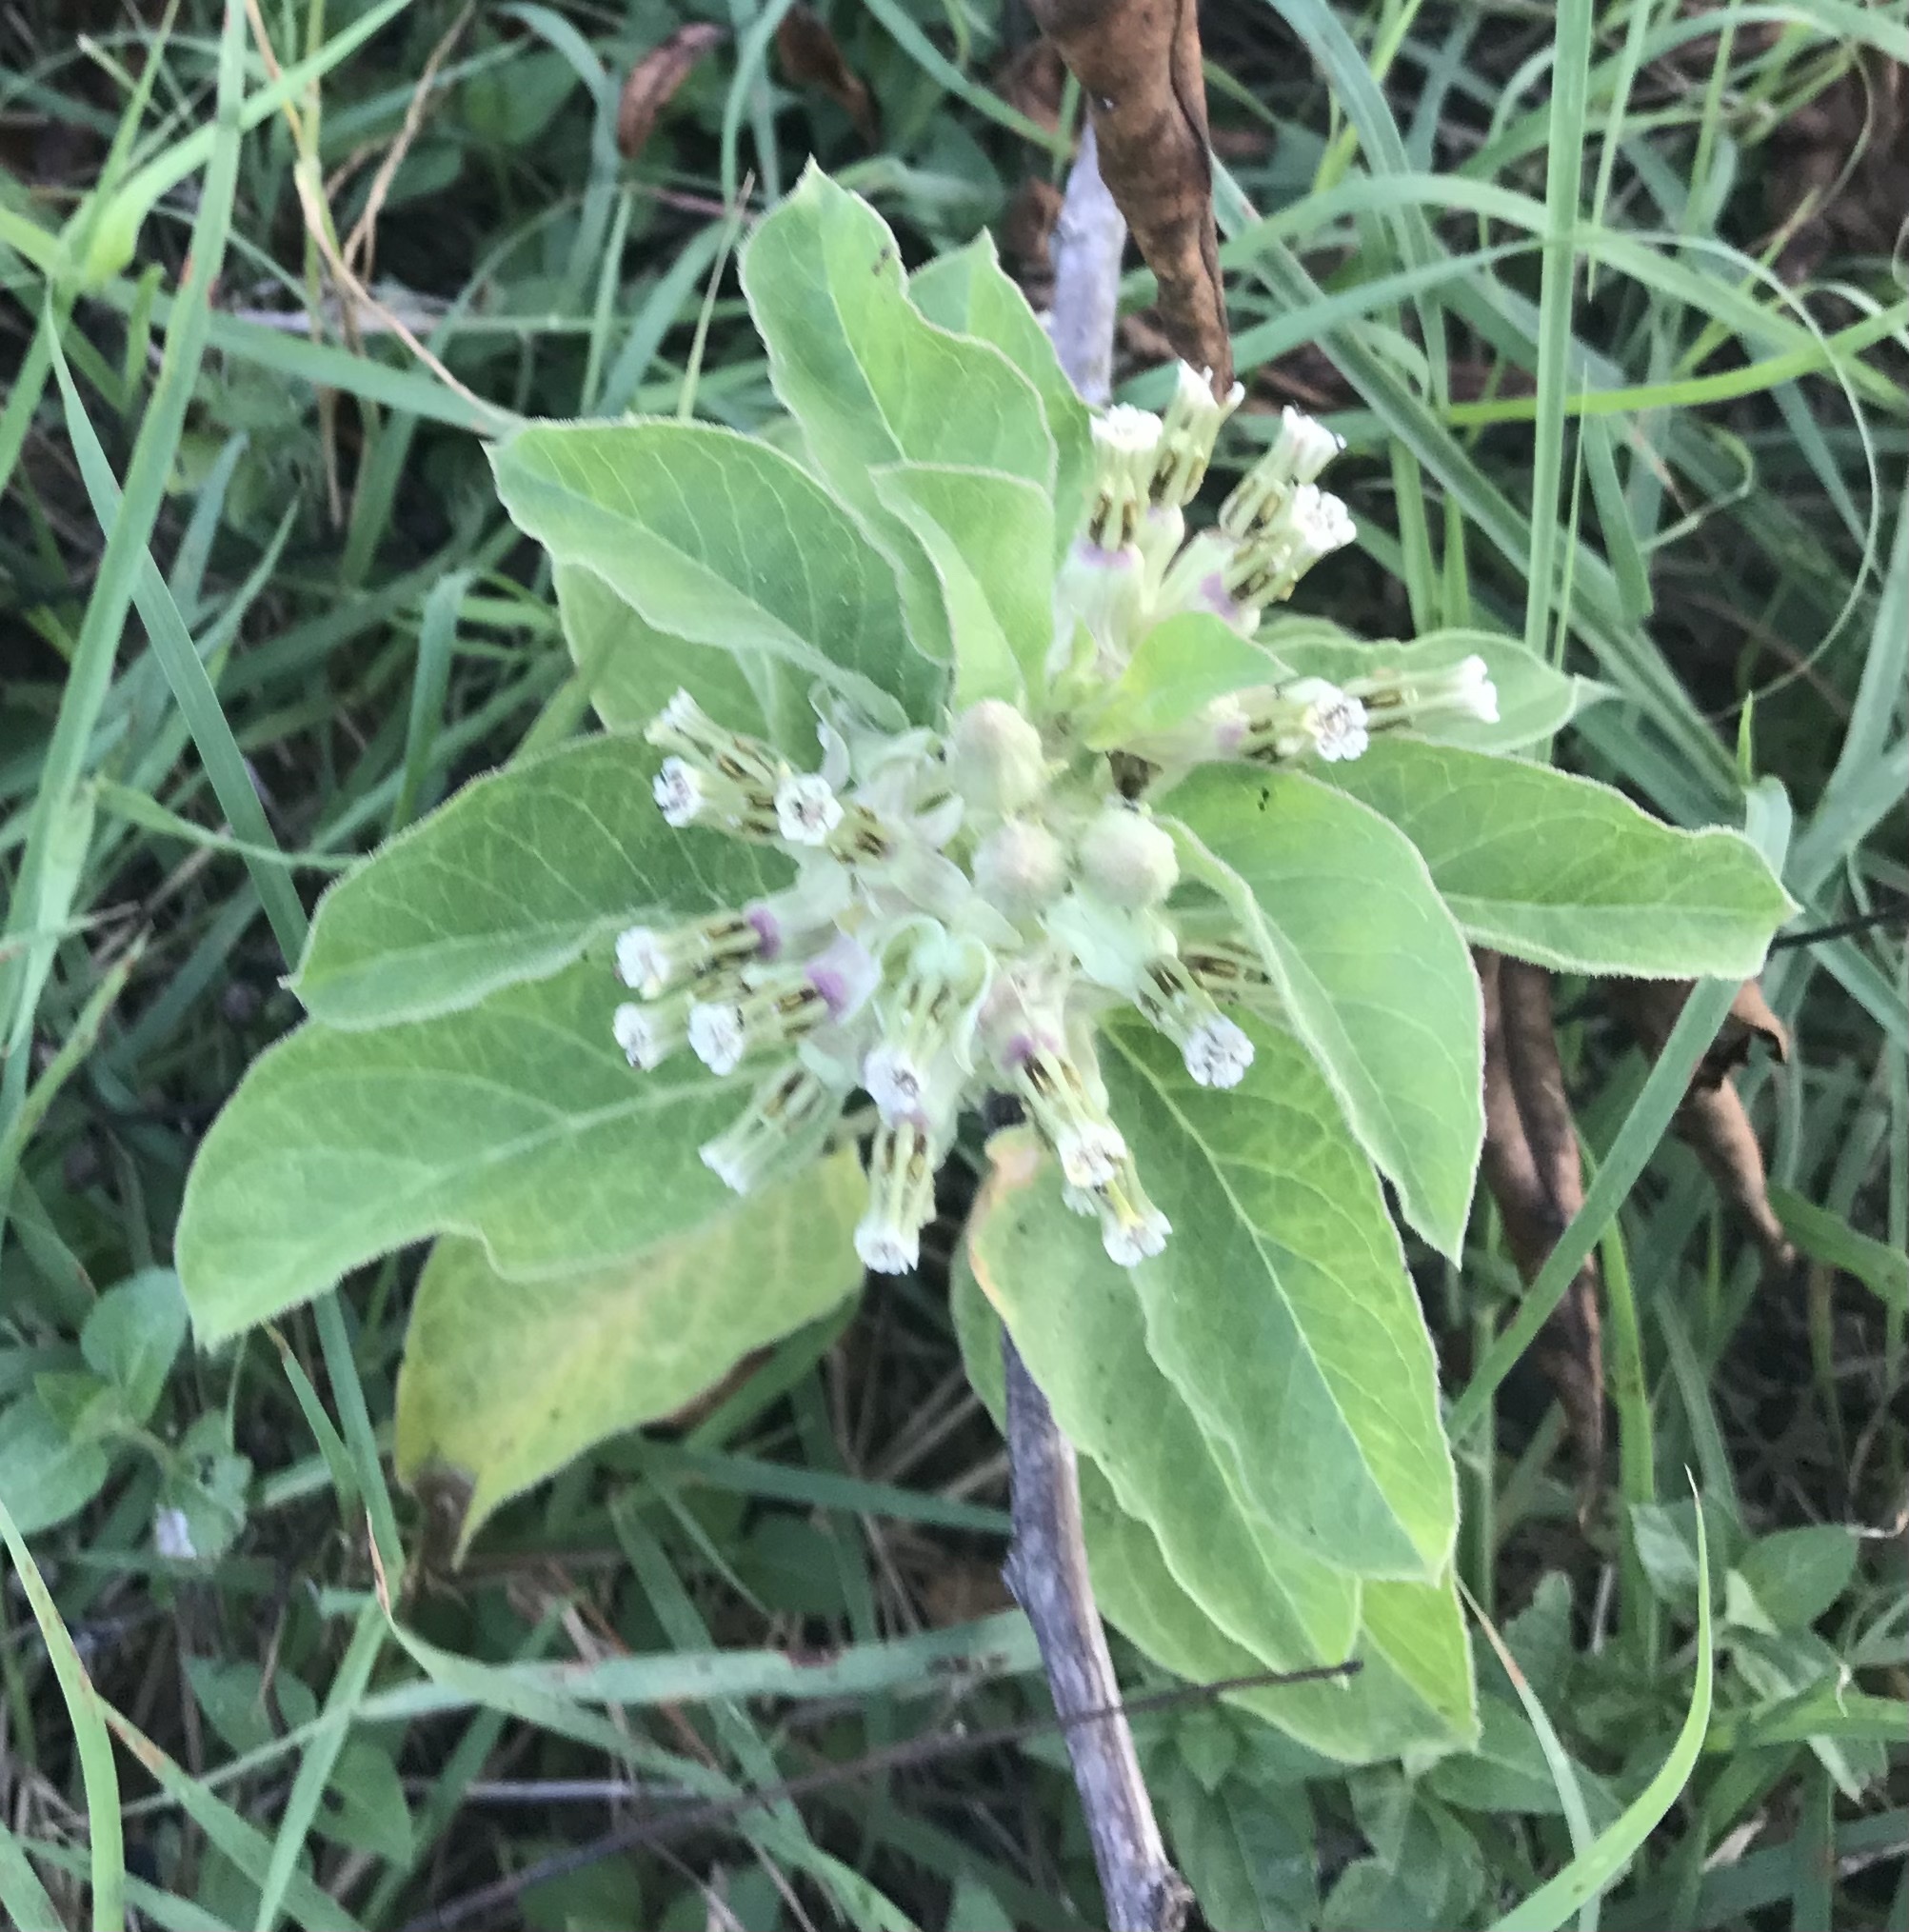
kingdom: Plantae
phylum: Tracheophyta
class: Magnoliopsida
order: Gentianales
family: Apocynaceae
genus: Asclepias
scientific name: Asclepias oenotheroides
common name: Zizotes milkweed
